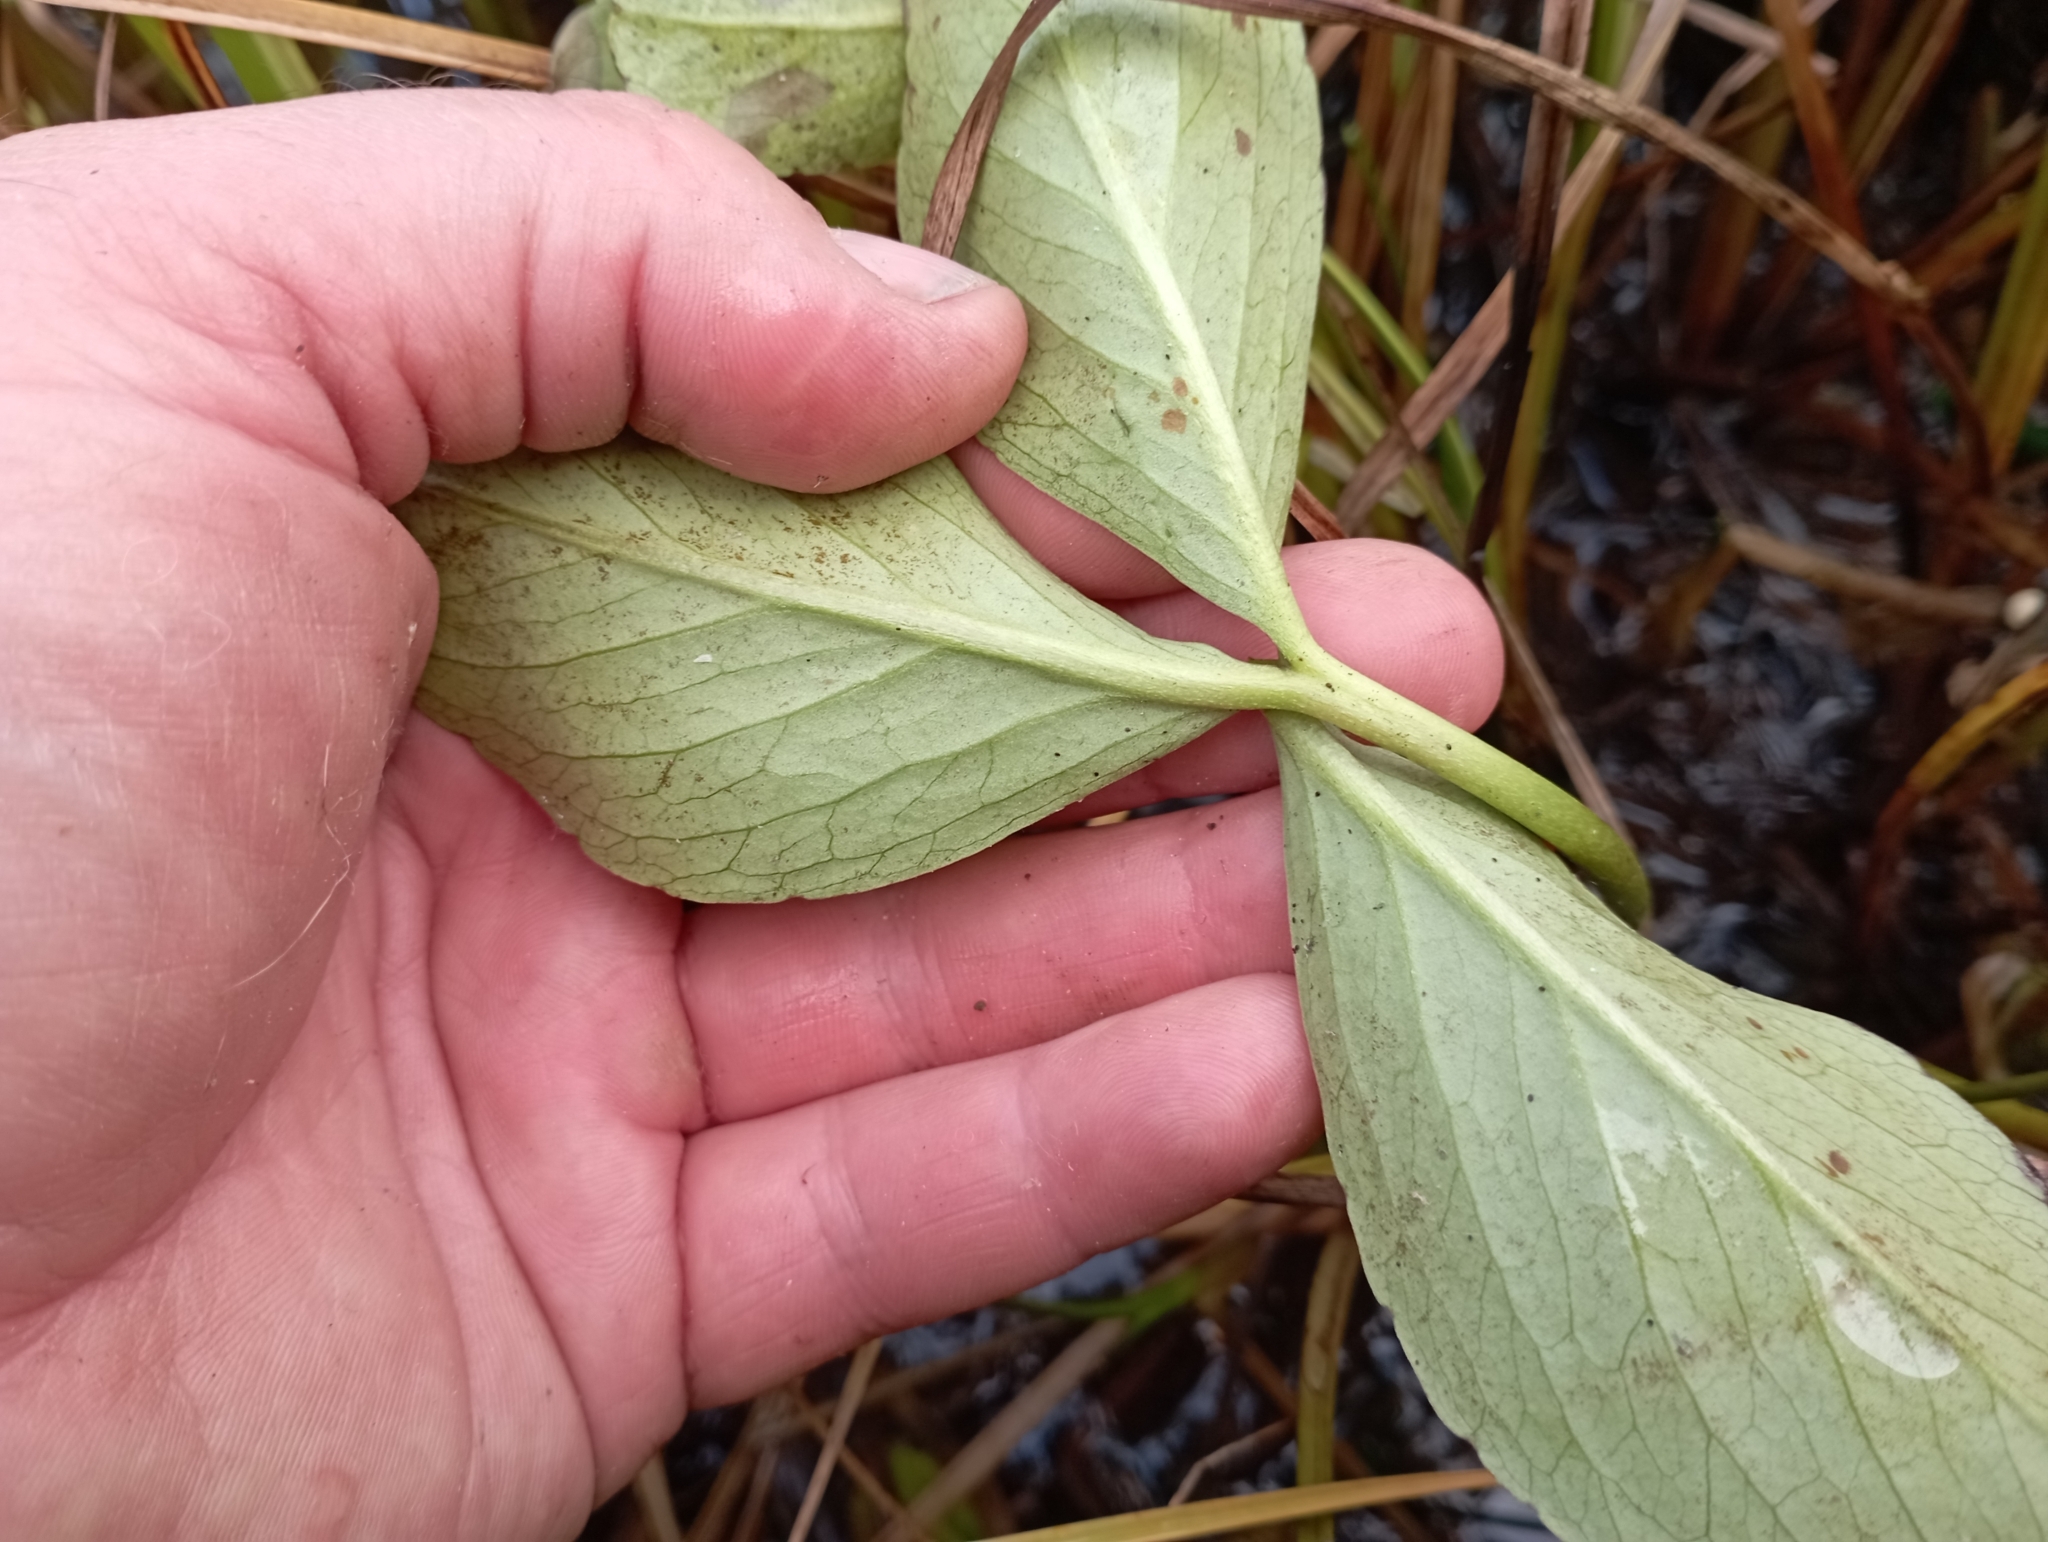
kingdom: Plantae
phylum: Tracheophyta
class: Magnoliopsida
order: Asterales
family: Menyanthaceae
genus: Menyanthes
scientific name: Menyanthes trifoliata
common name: Bogbean
